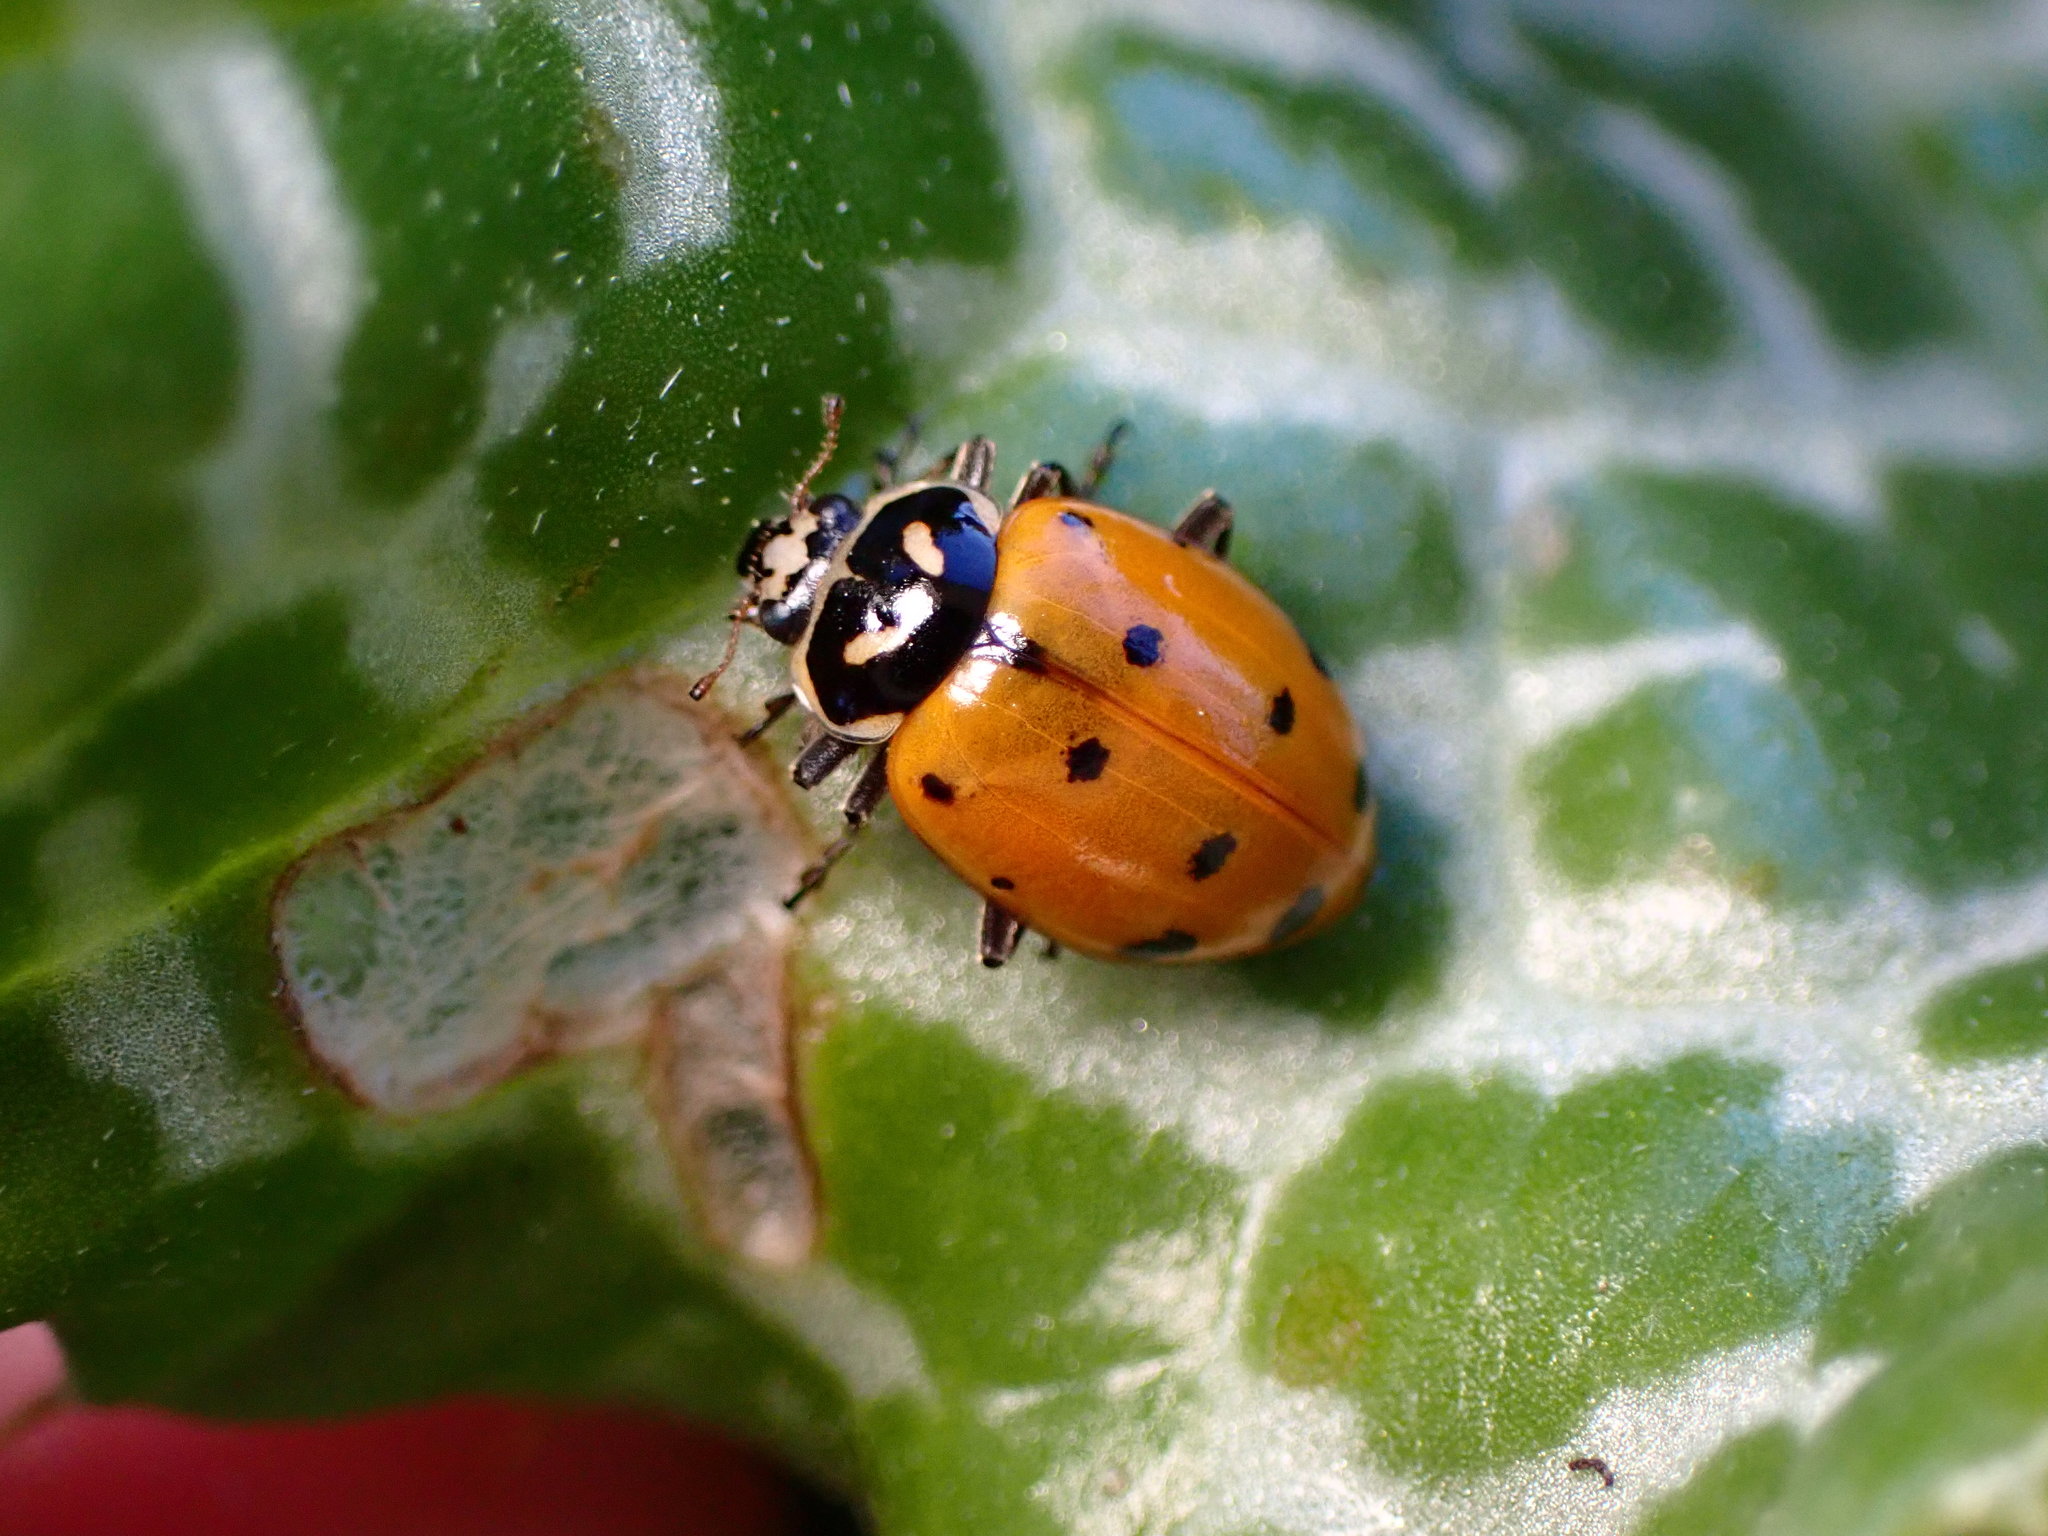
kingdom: Animalia
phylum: Arthropoda
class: Insecta
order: Coleoptera
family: Coccinellidae
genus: Hippodamia
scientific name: Hippodamia convergens
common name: Convergent lady beetle
